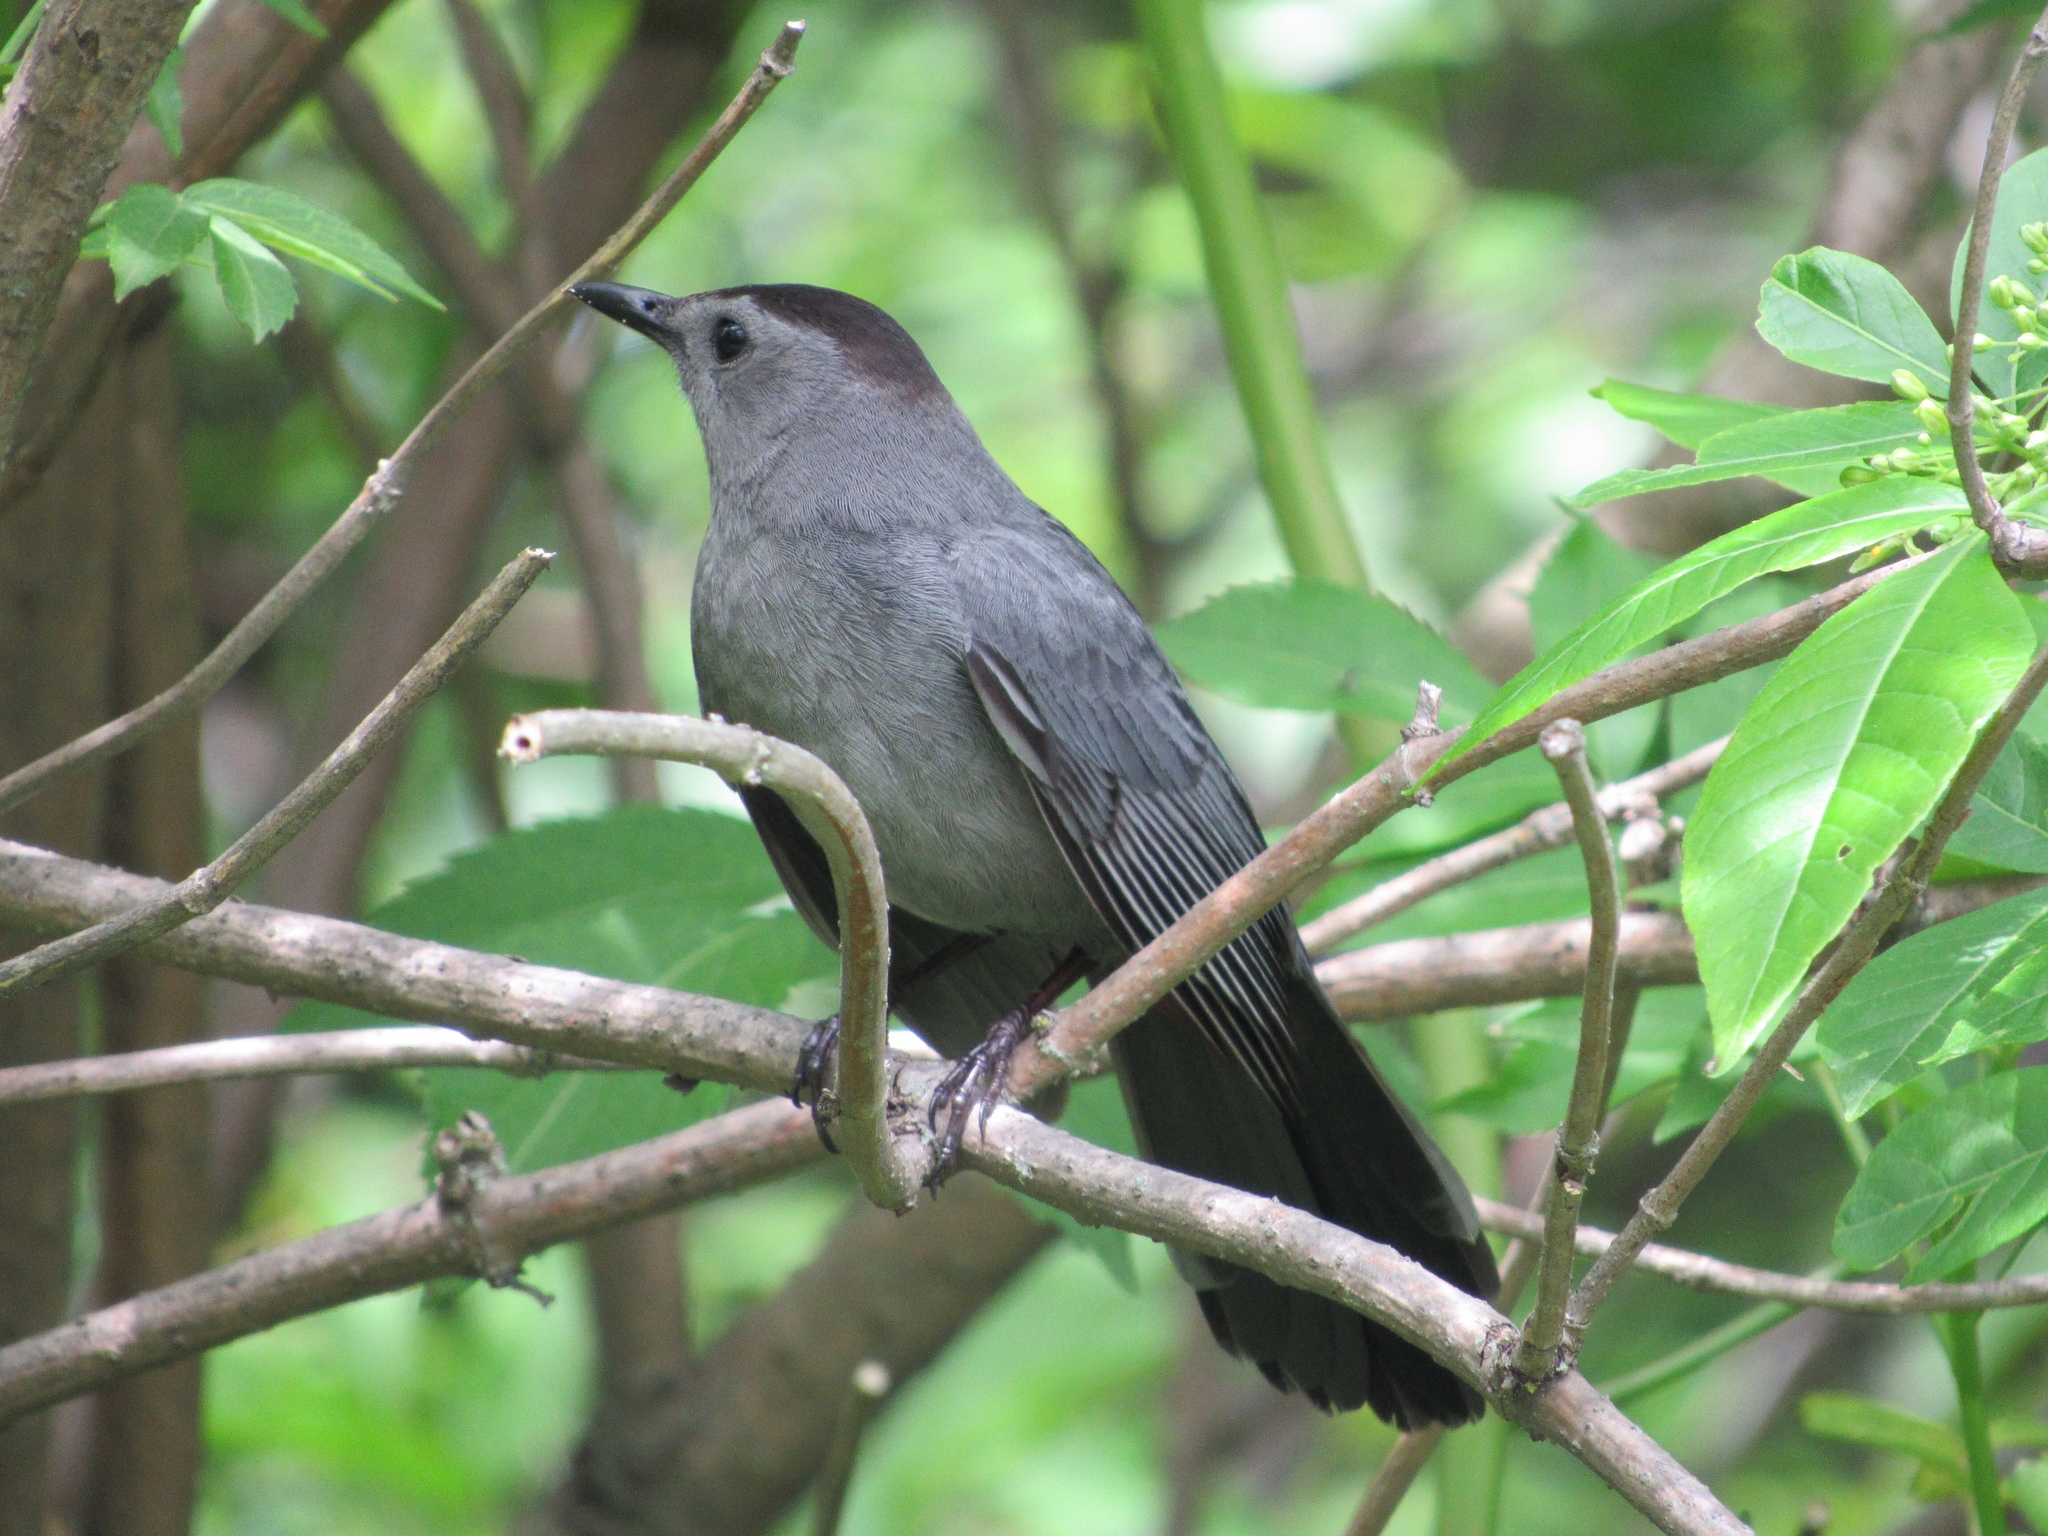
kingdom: Animalia
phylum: Chordata
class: Aves
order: Passeriformes
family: Mimidae
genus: Dumetella
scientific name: Dumetella carolinensis
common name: Gray catbird
